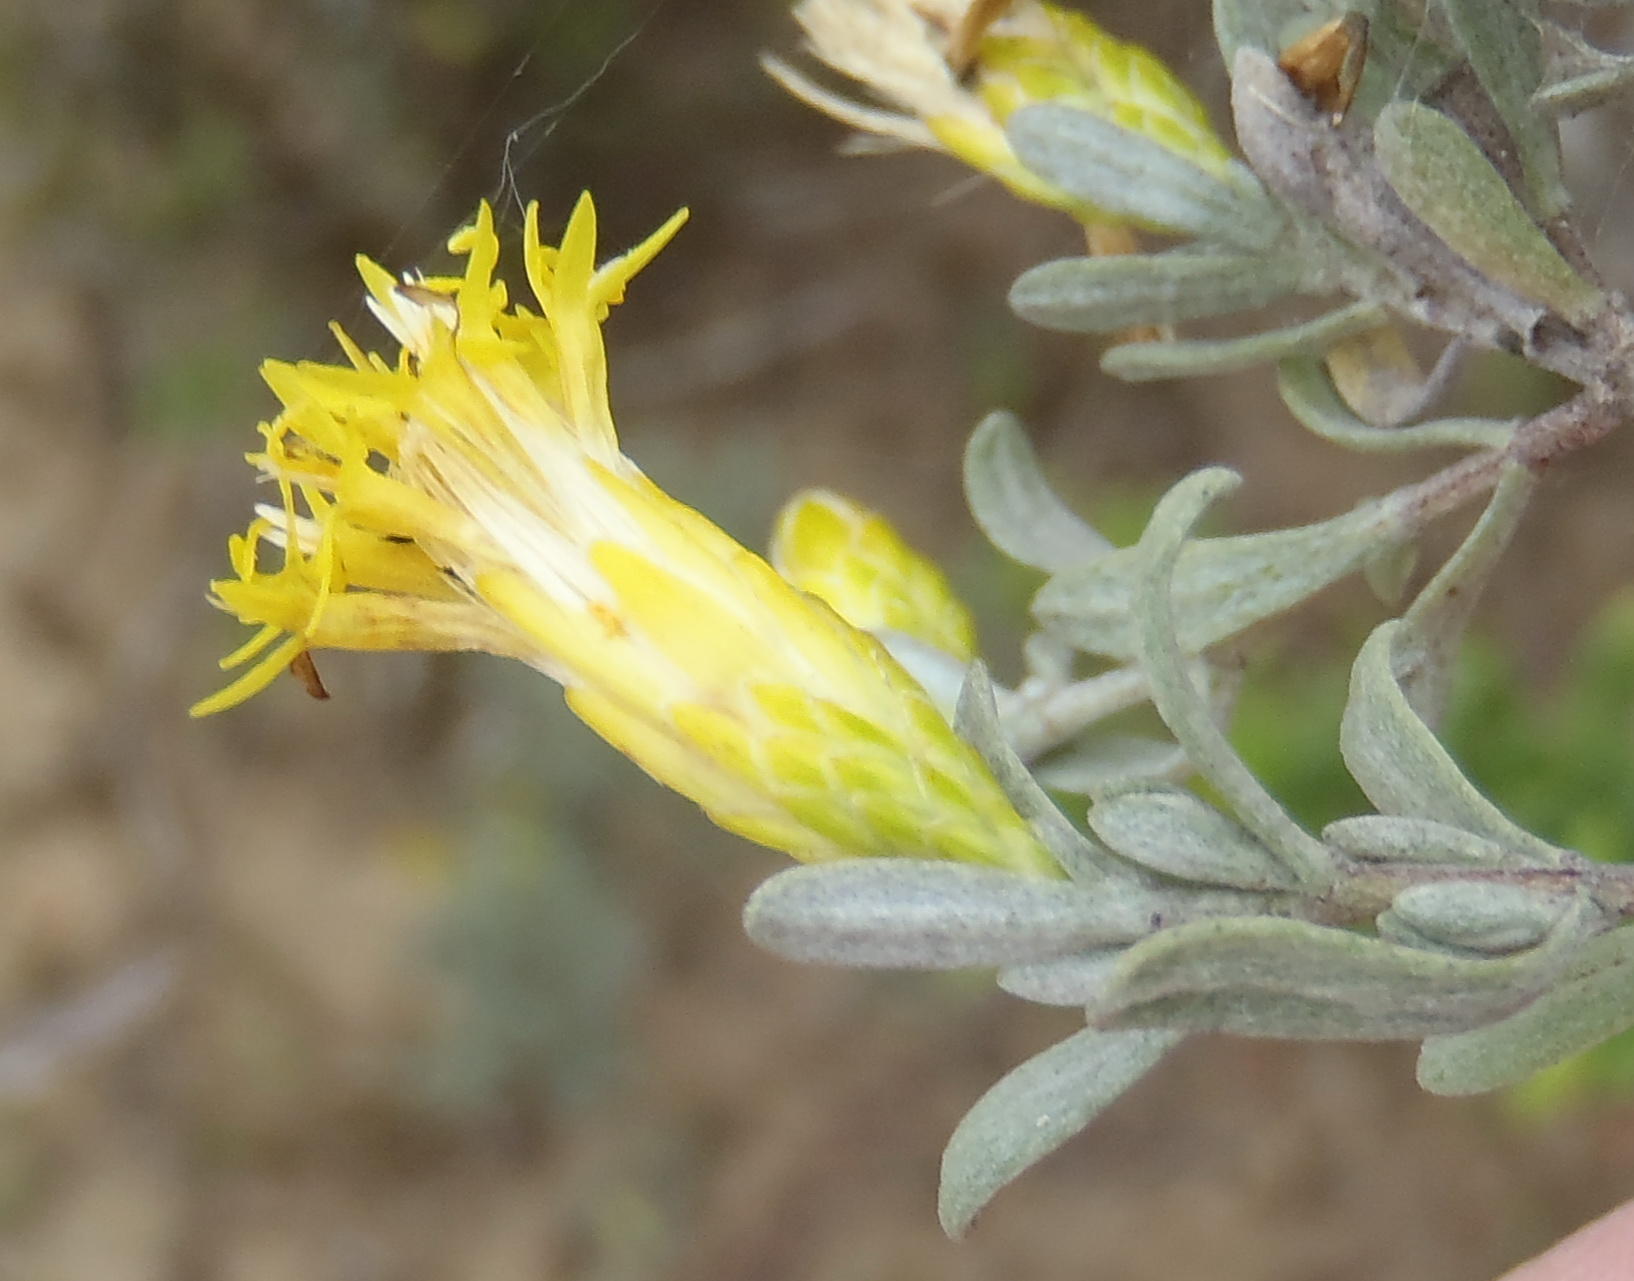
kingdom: Plantae
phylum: Tracheophyta
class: Magnoliopsida
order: Asterales
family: Asteraceae
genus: Pteronia
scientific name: Pteronia incana
